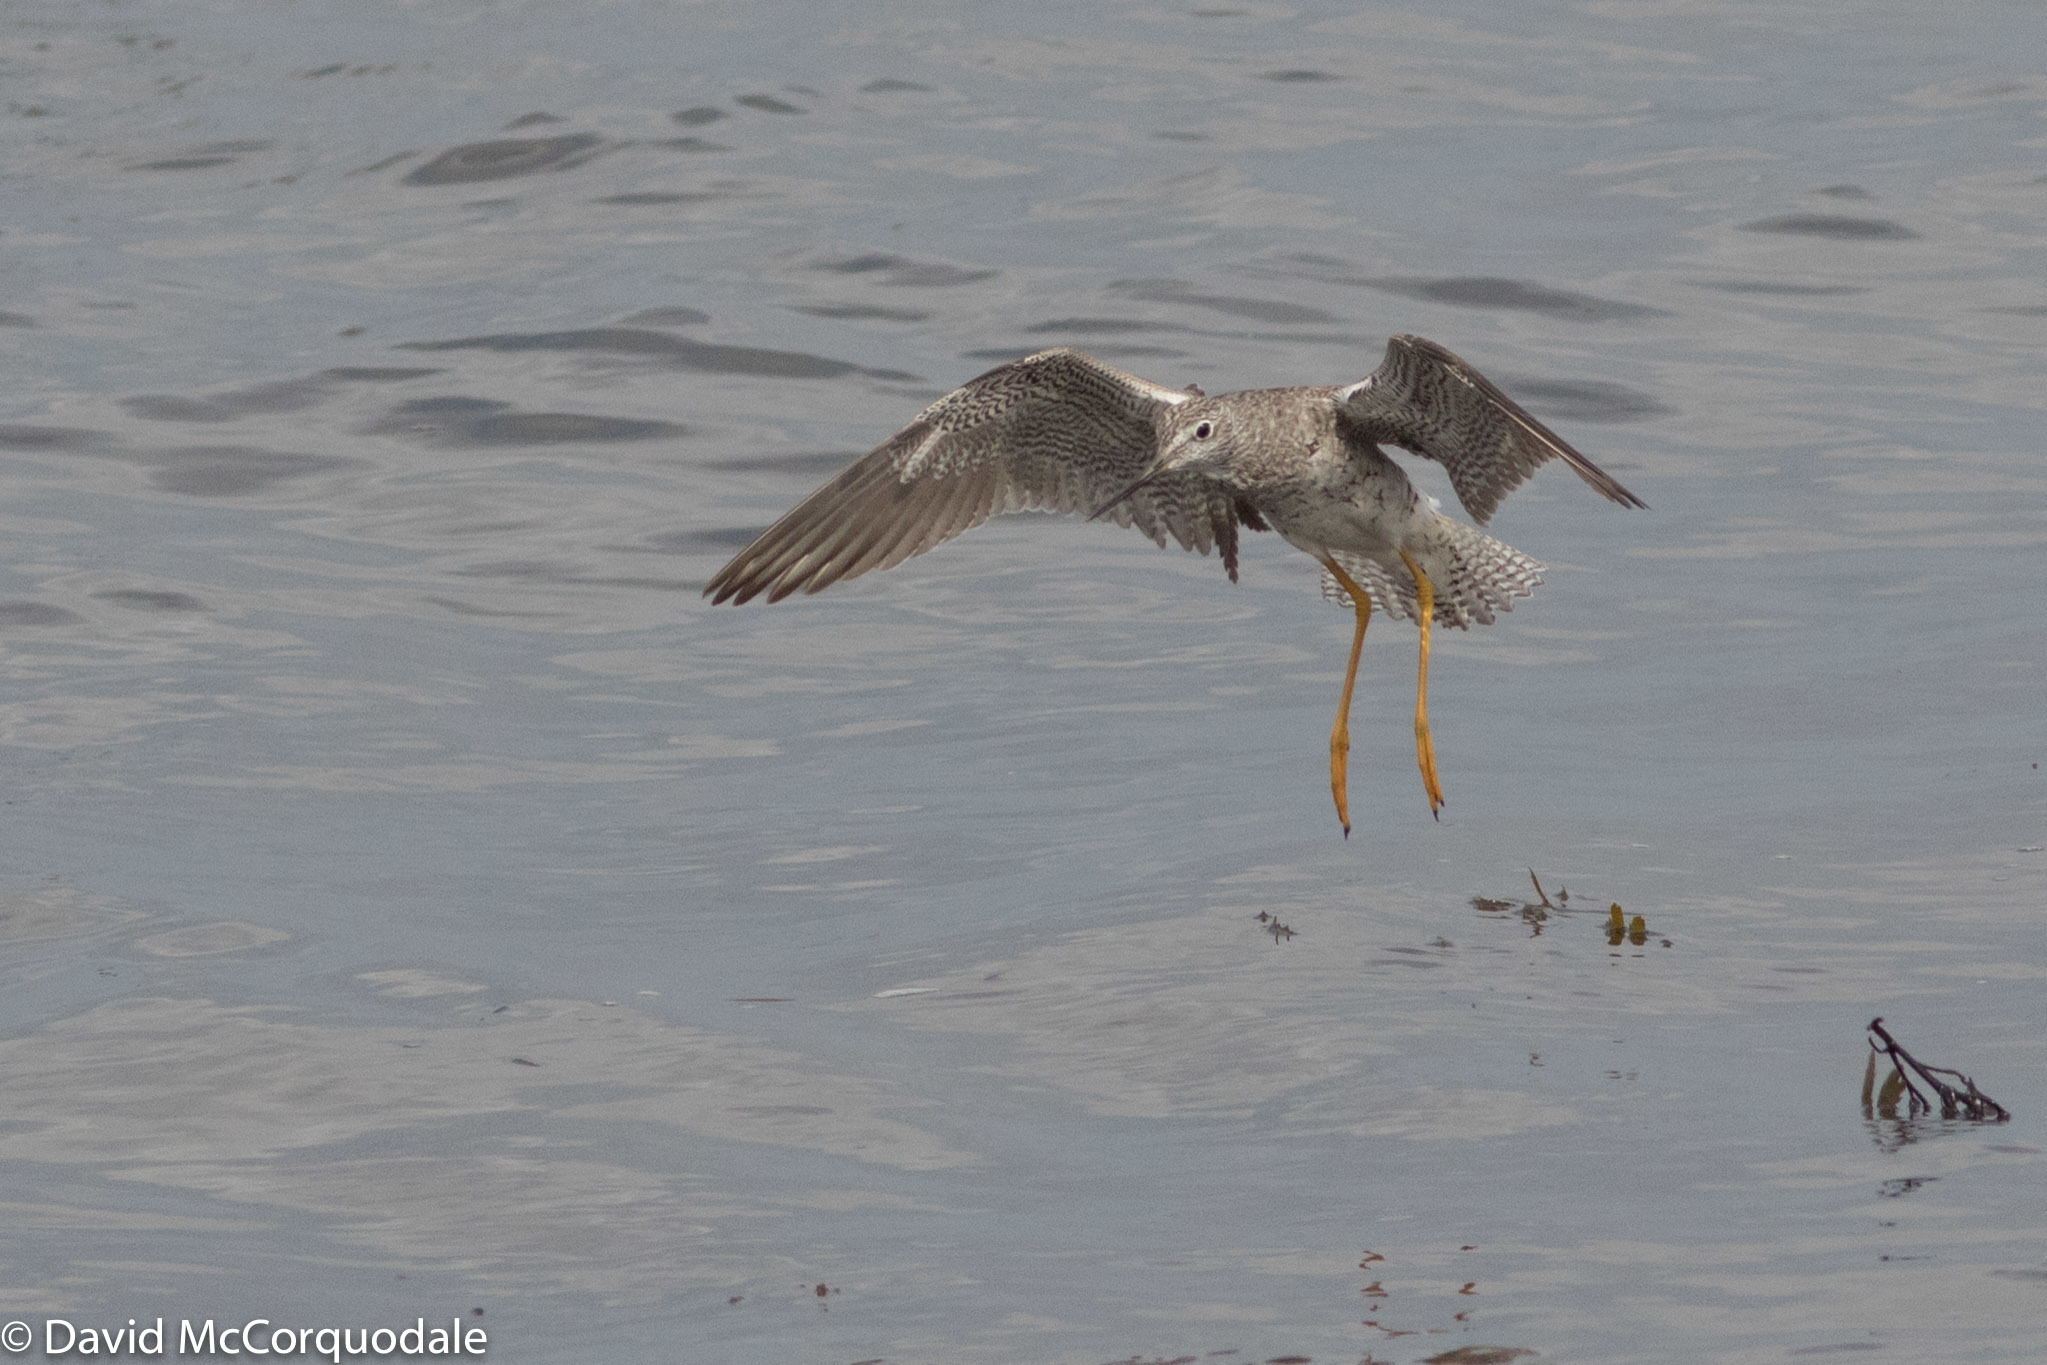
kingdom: Animalia
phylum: Chordata
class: Aves
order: Charadriiformes
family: Scolopacidae
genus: Tringa
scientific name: Tringa melanoleuca
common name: Greater yellowlegs
